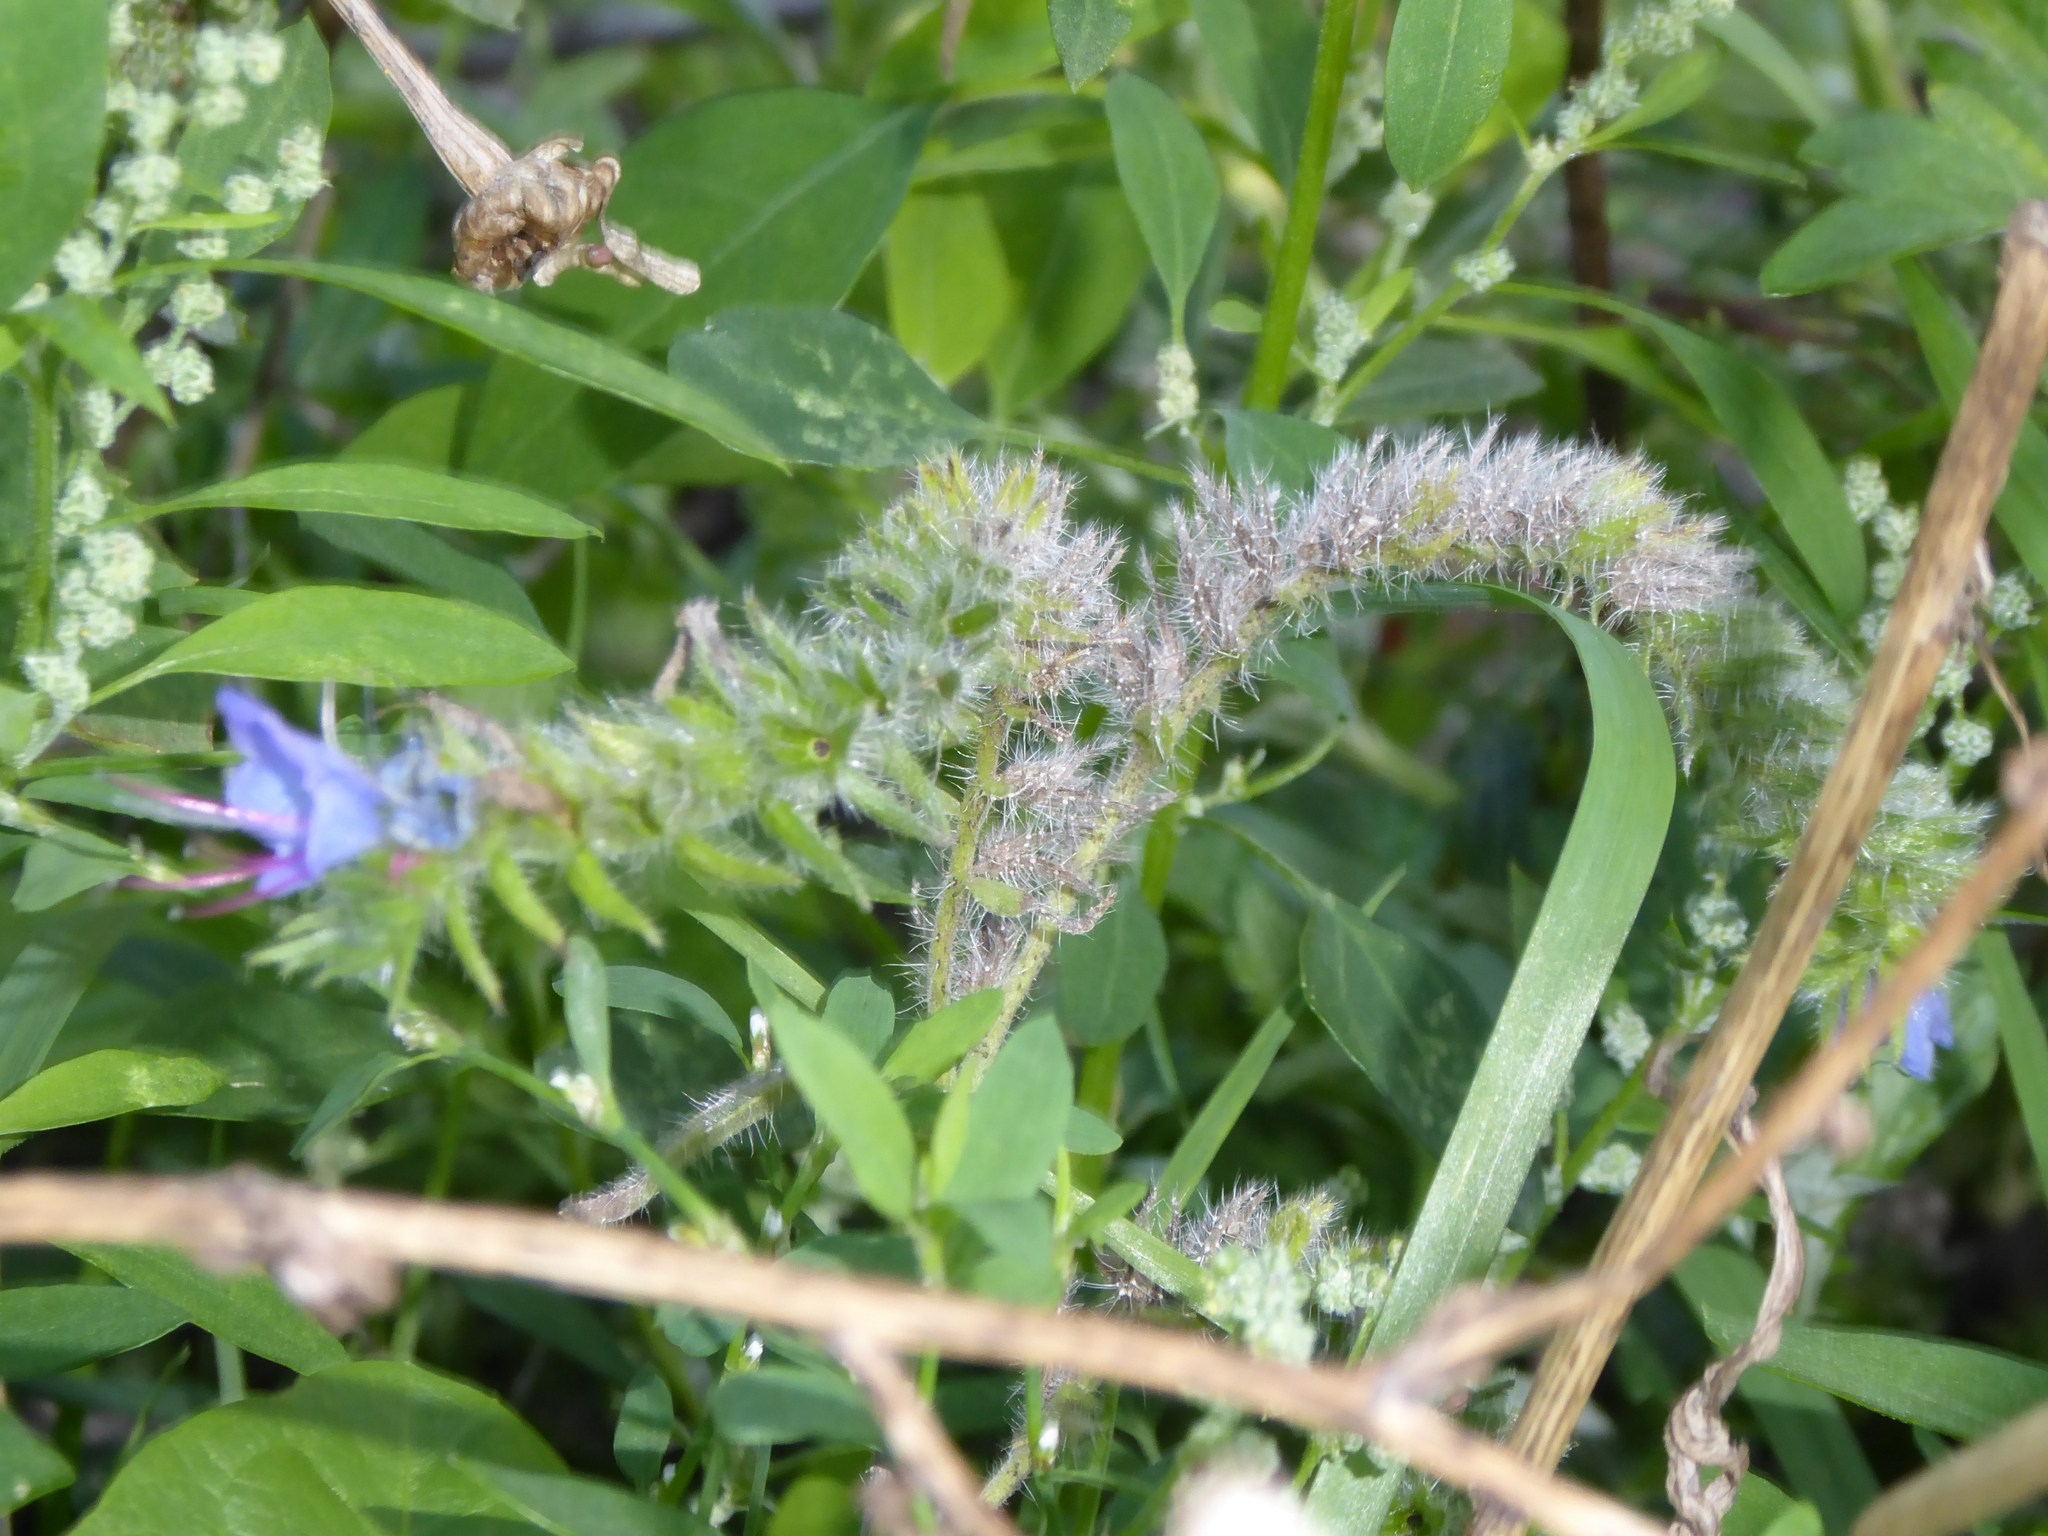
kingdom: Plantae
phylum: Tracheophyta
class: Magnoliopsida
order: Boraginales
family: Boraginaceae
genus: Echium
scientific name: Echium vulgare
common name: Common viper's bugloss
